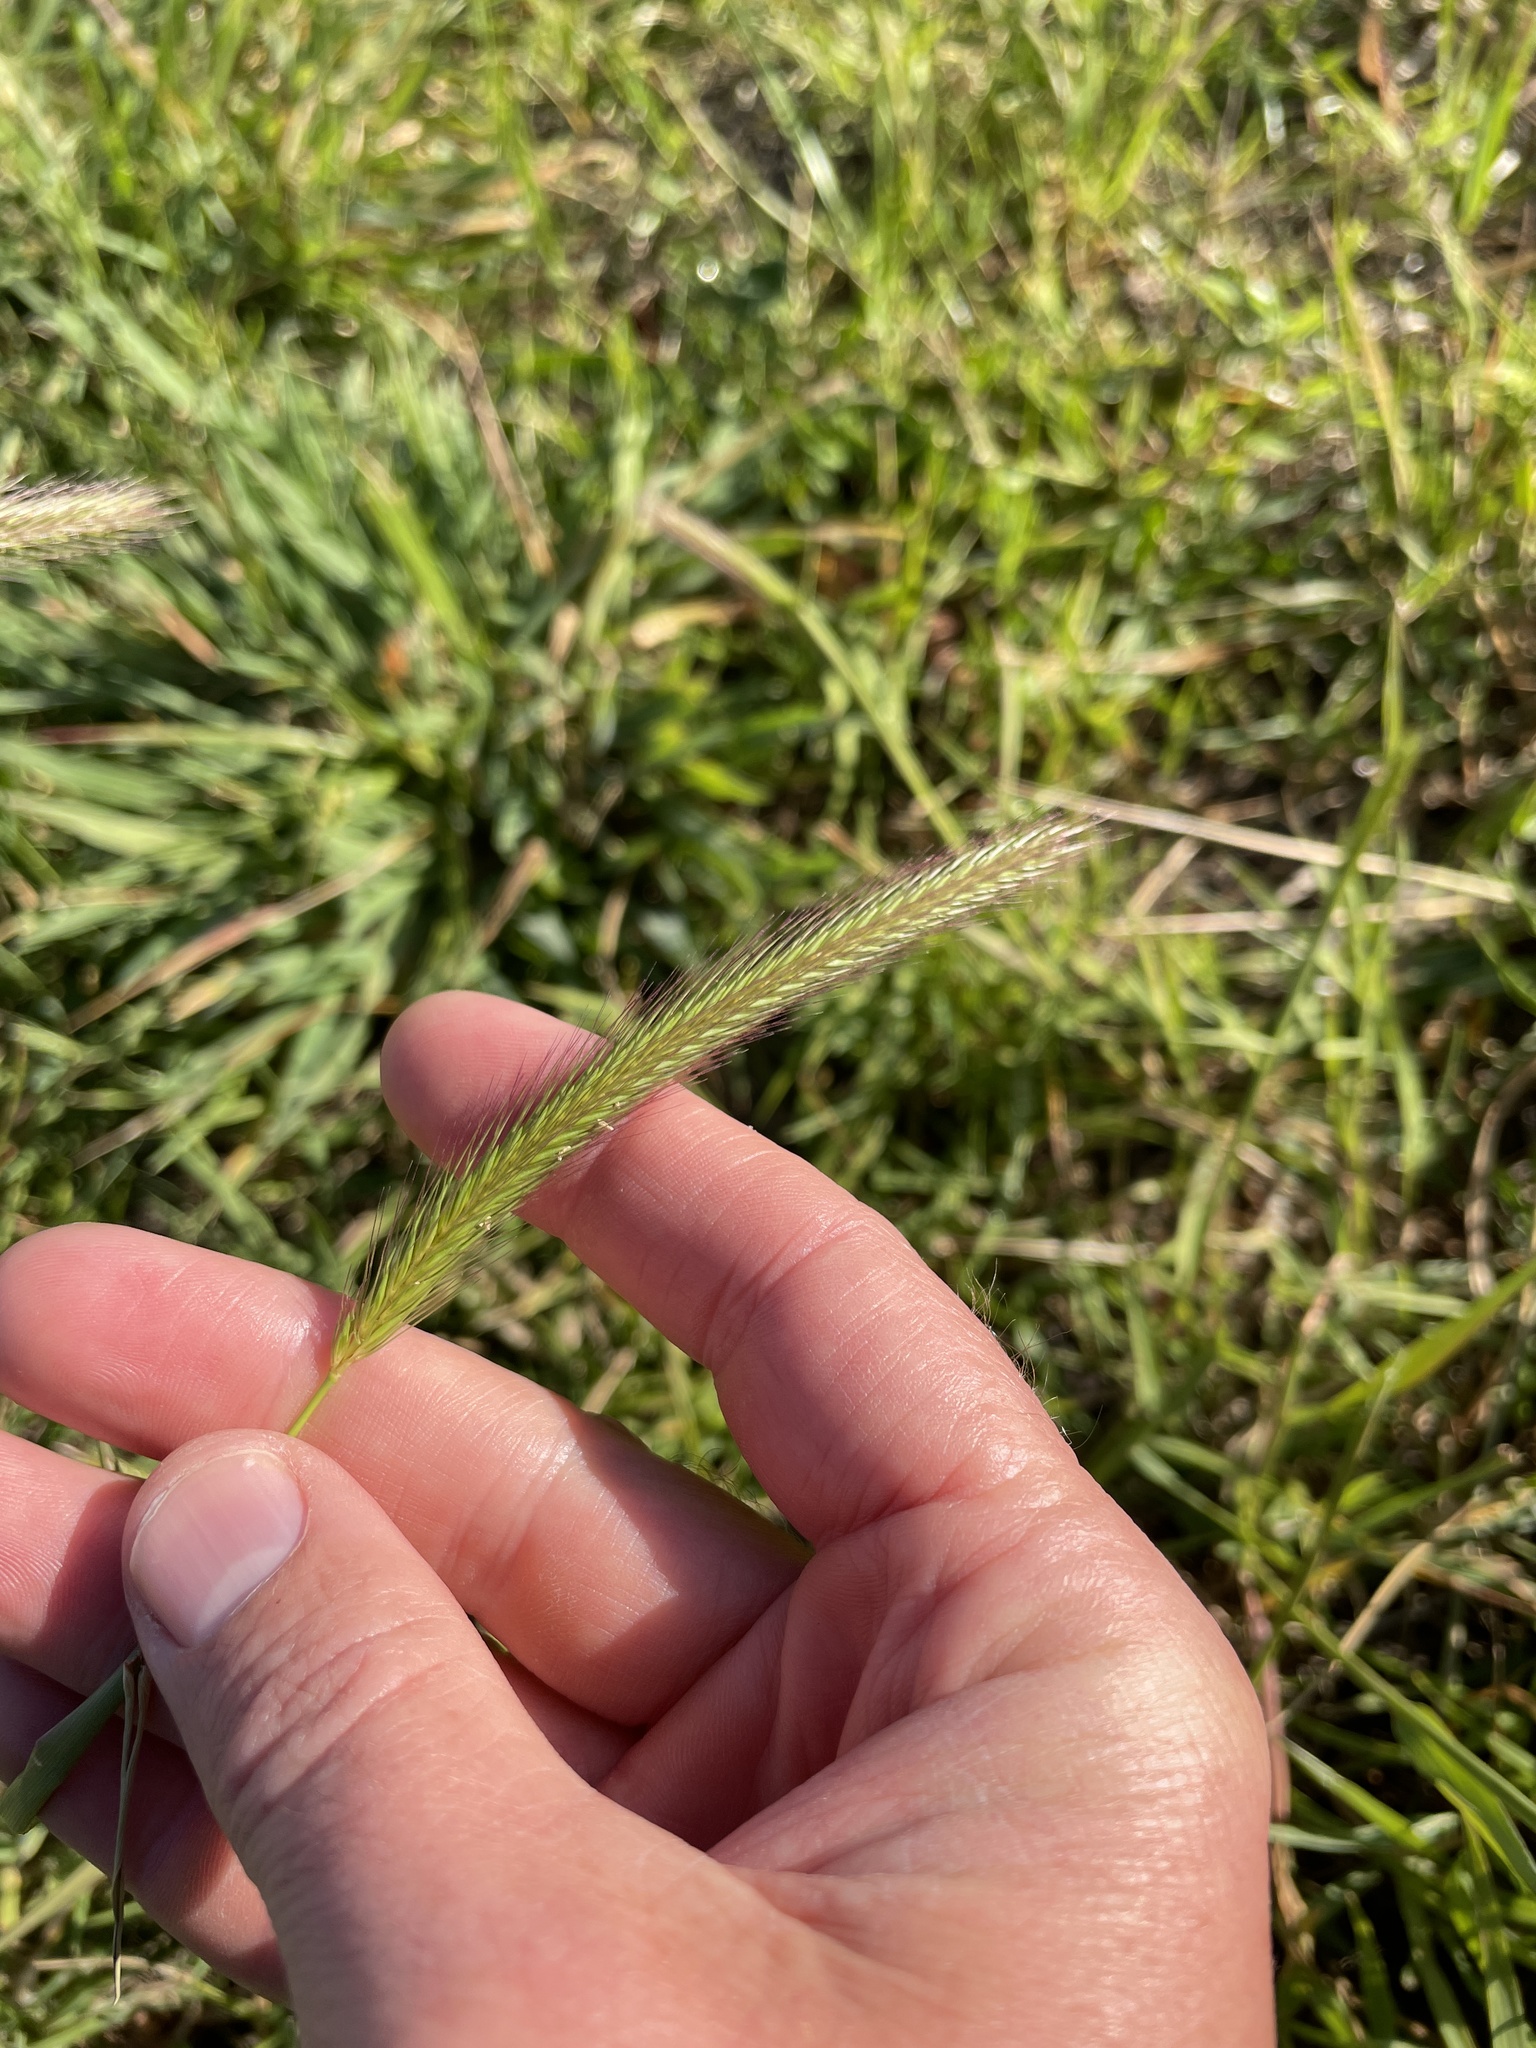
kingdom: Plantae
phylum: Tracheophyta
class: Liliopsida
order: Poales
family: Poaceae
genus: Hordeum
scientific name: Hordeum brachyantherum
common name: Meadow barley
